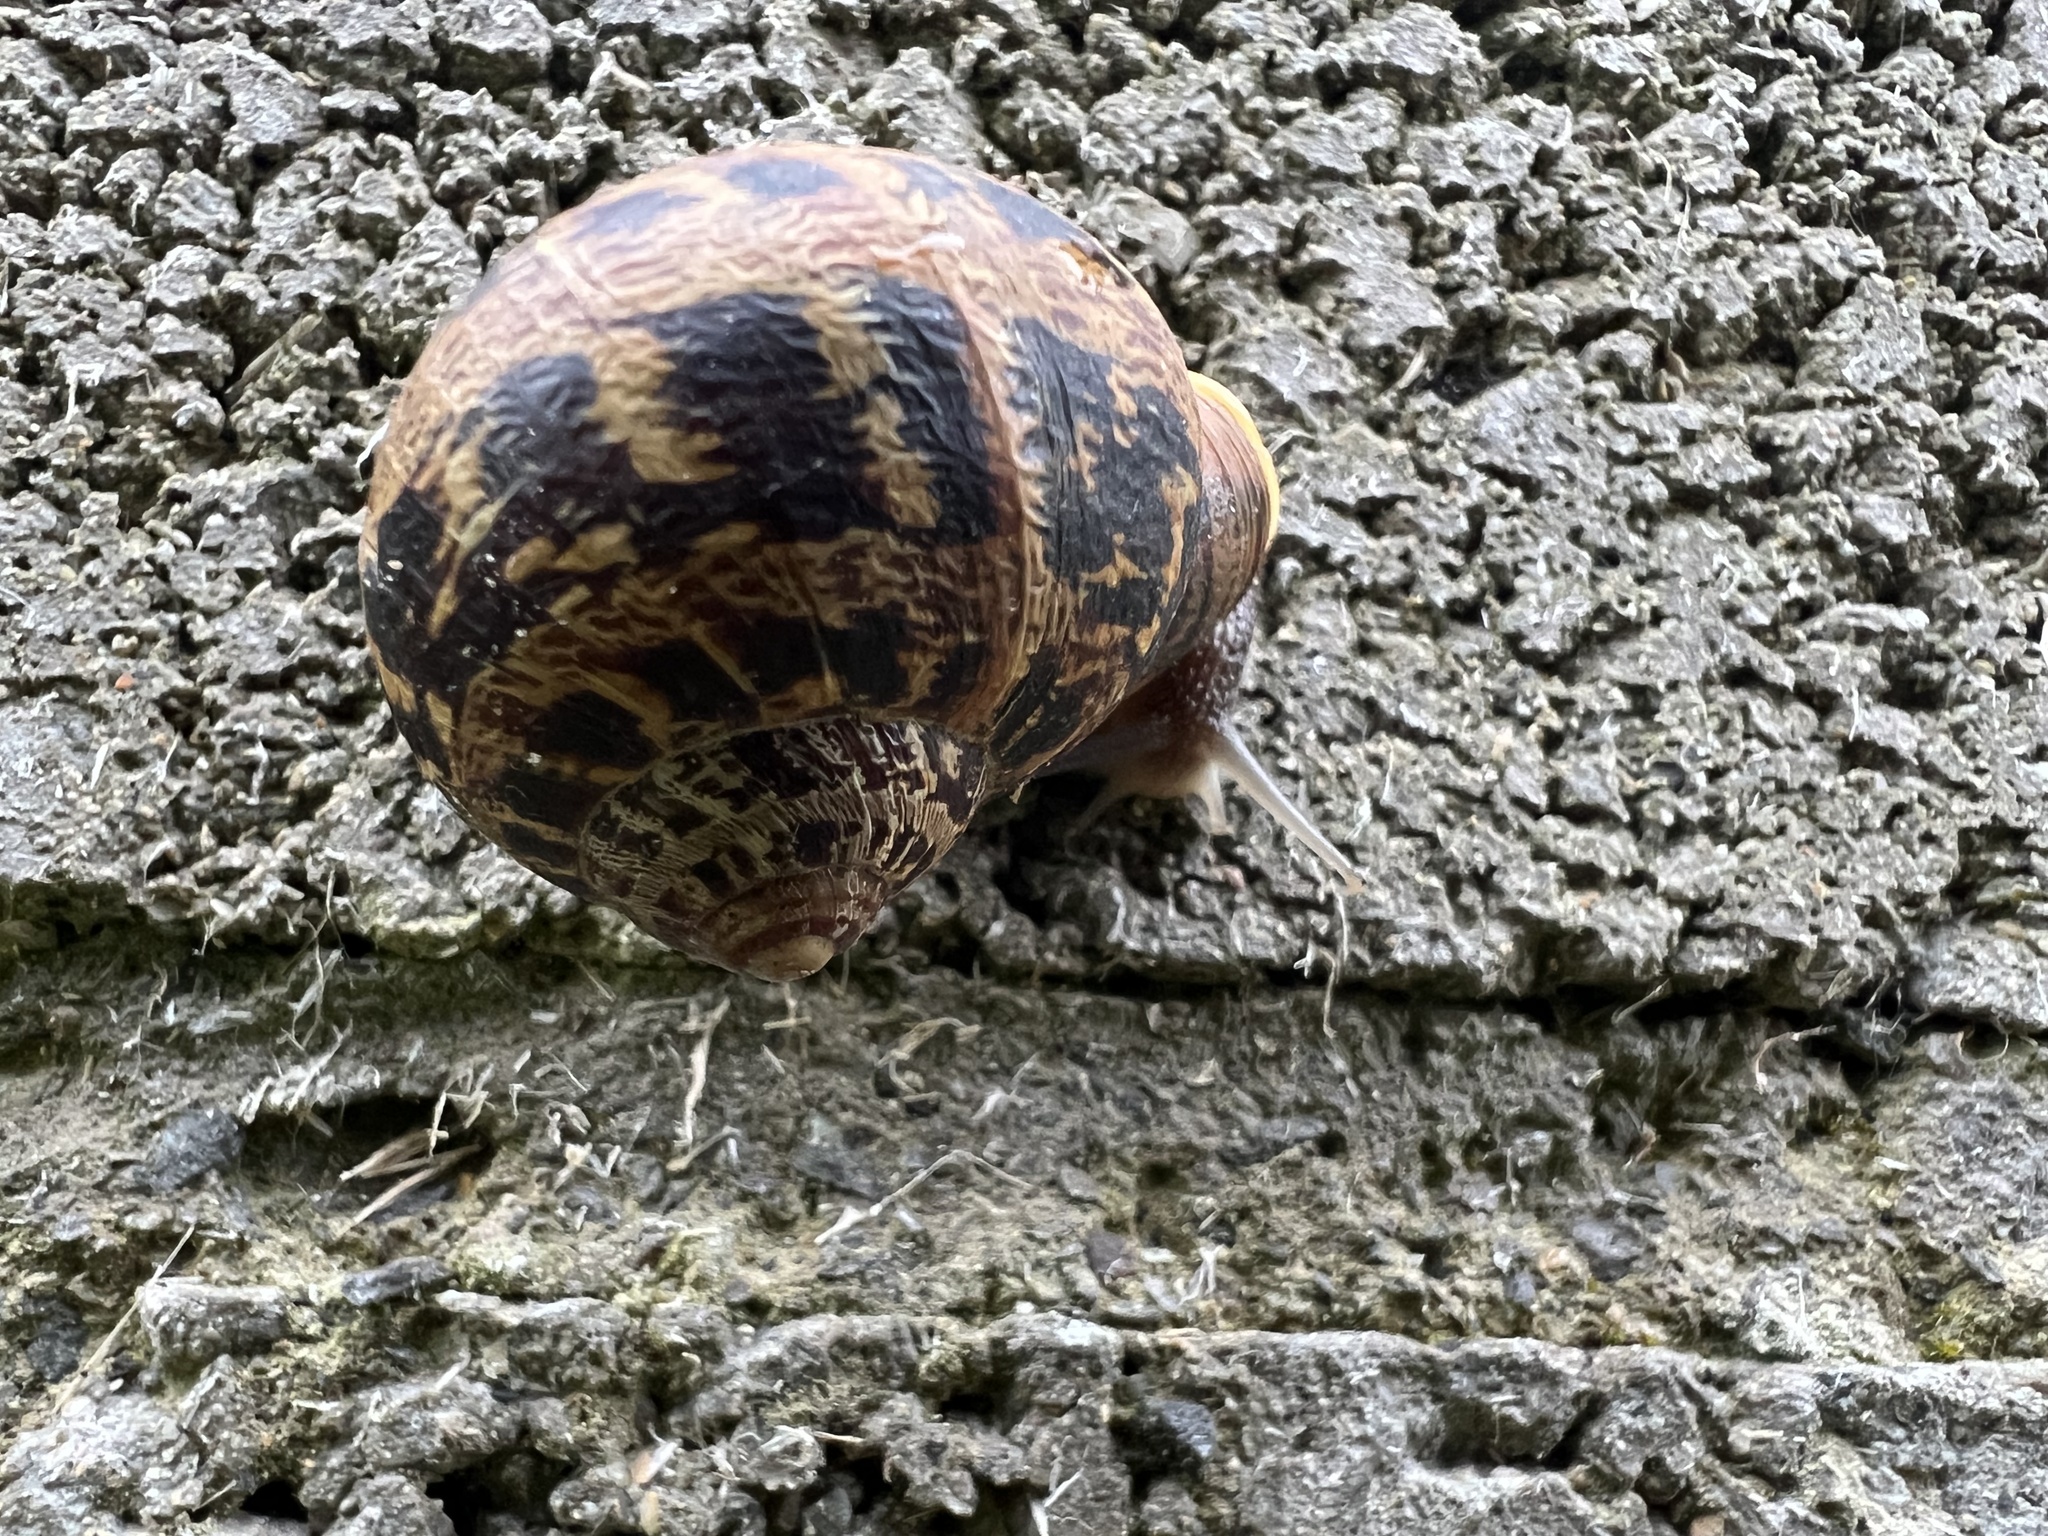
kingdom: Animalia
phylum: Mollusca
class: Gastropoda
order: Stylommatophora
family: Helicidae
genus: Cornu
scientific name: Cornu aspersum
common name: Brown garden snail
